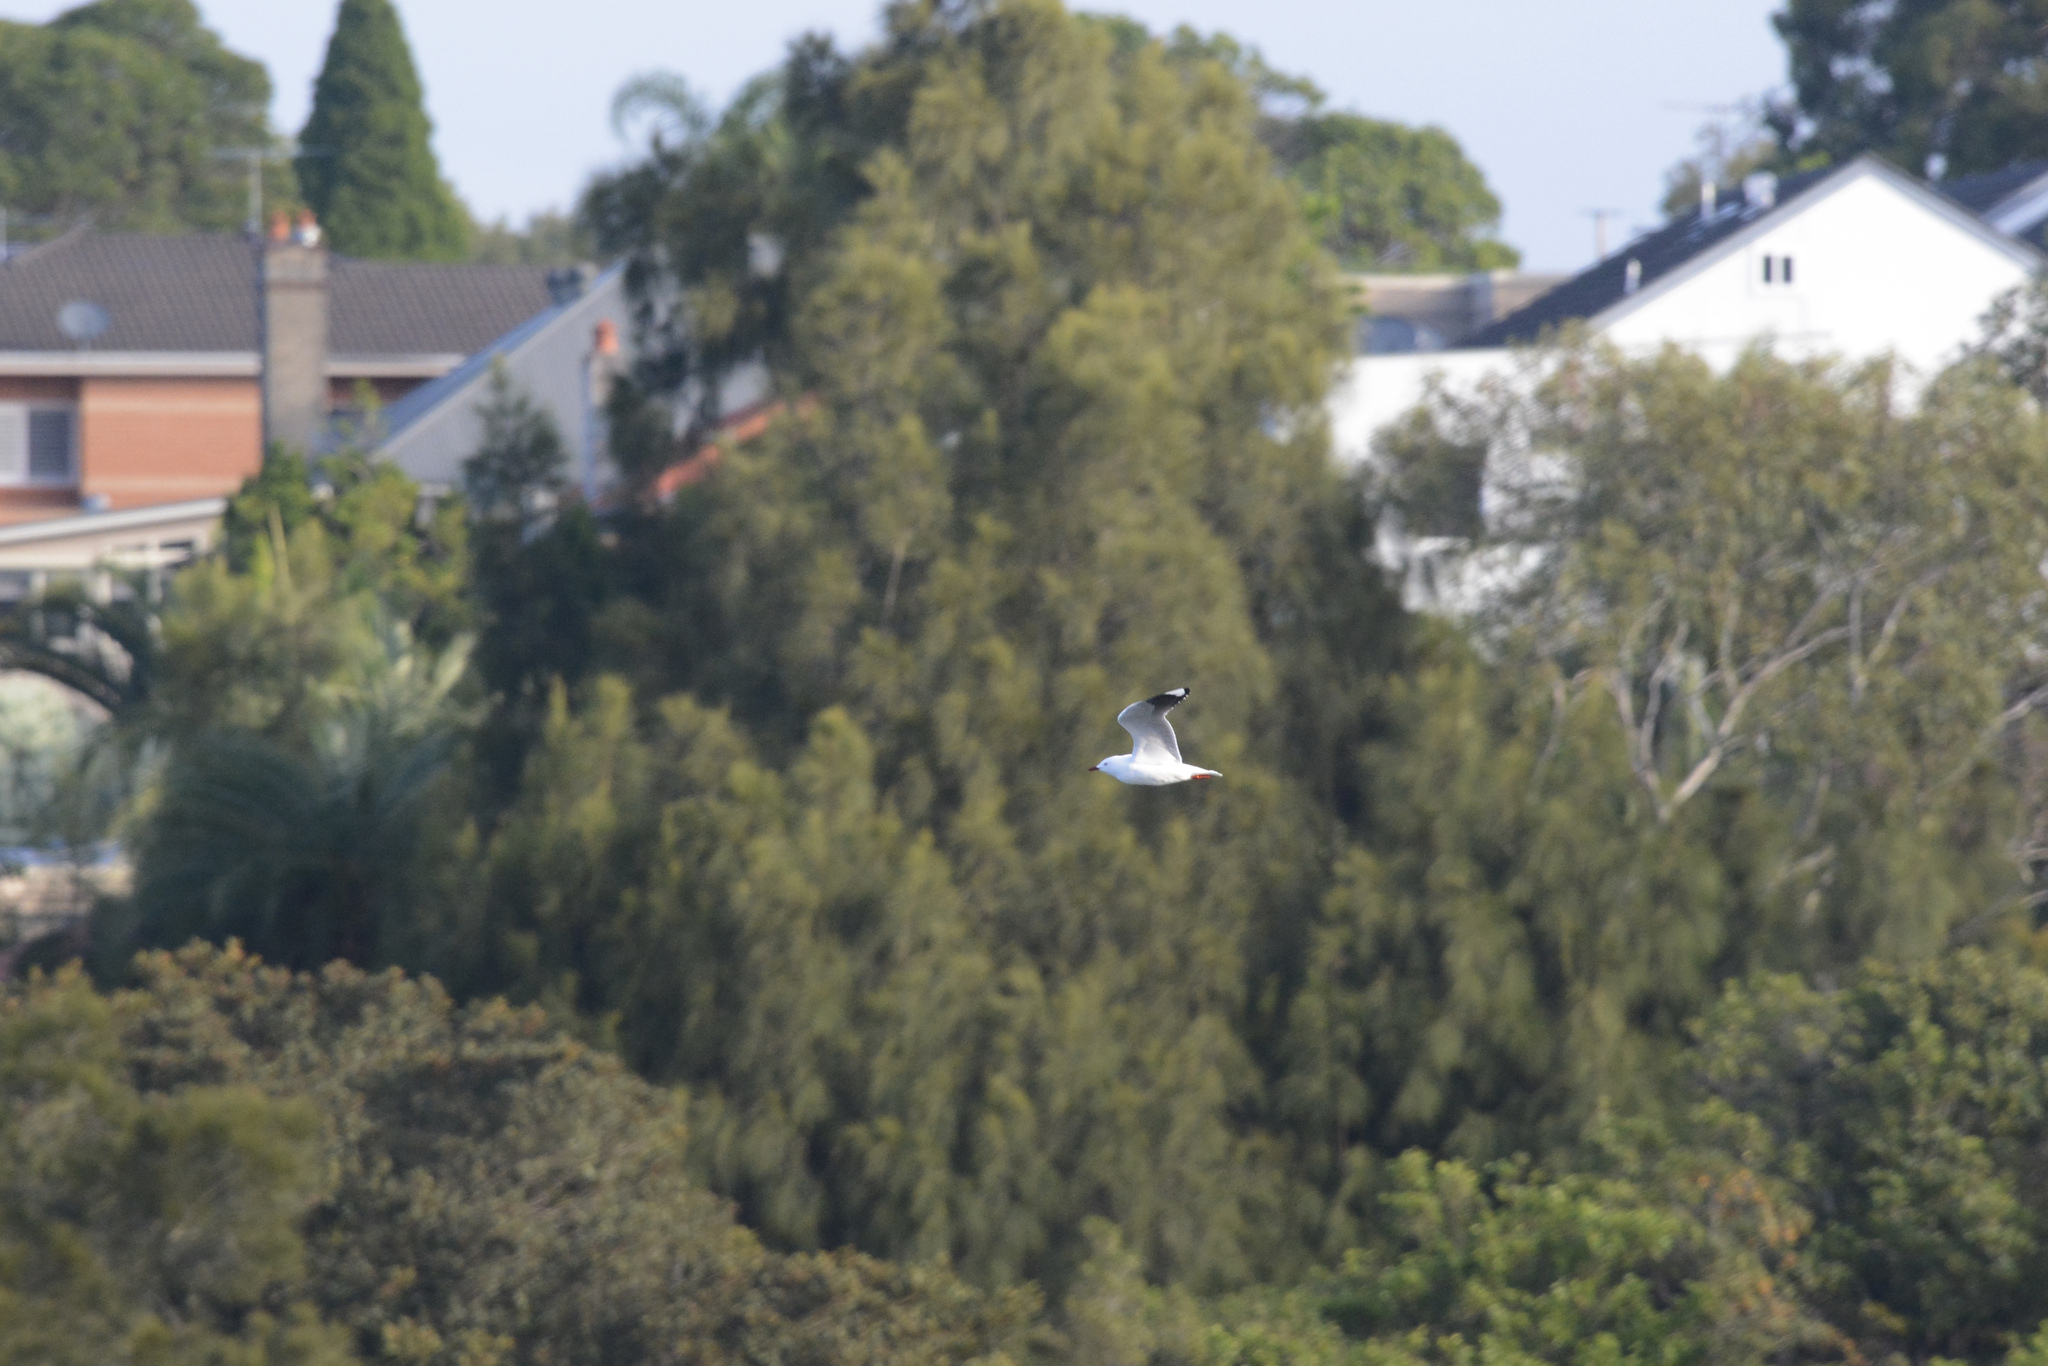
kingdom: Animalia
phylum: Chordata
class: Aves
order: Charadriiformes
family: Laridae
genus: Chroicocephalus
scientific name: Chroicocephalus novaehollandiae
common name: Silver gull
